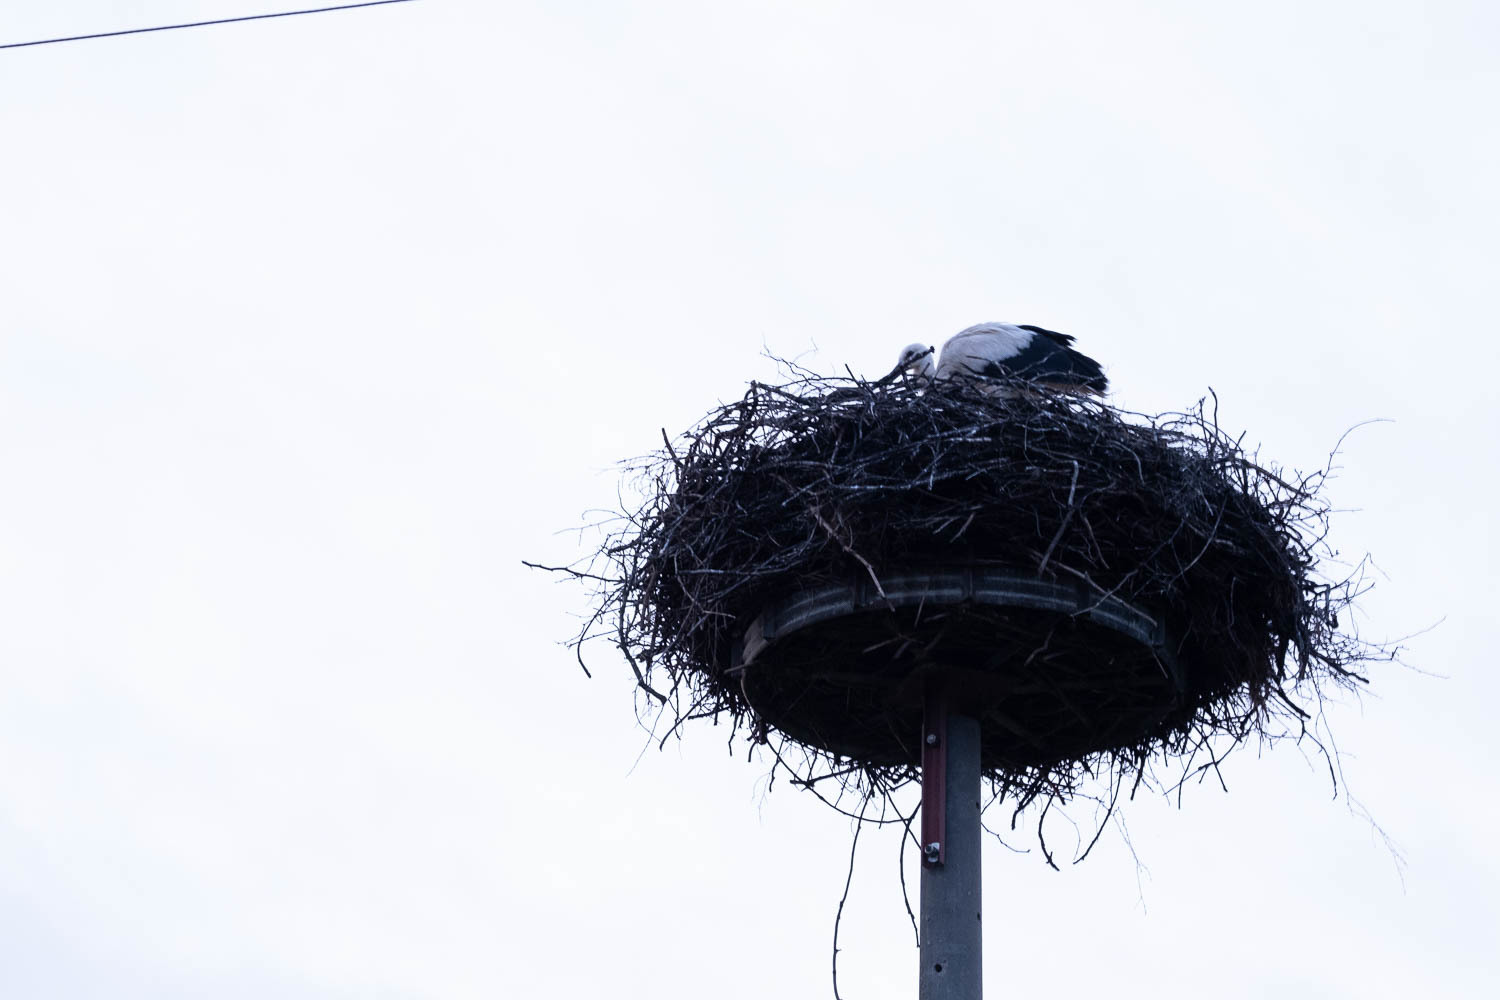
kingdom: Animalia
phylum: Chordata
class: Aves
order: Ciconiiformes
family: Ciconiidae
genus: Ciconia
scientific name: Ciconia ciconia
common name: White stork
